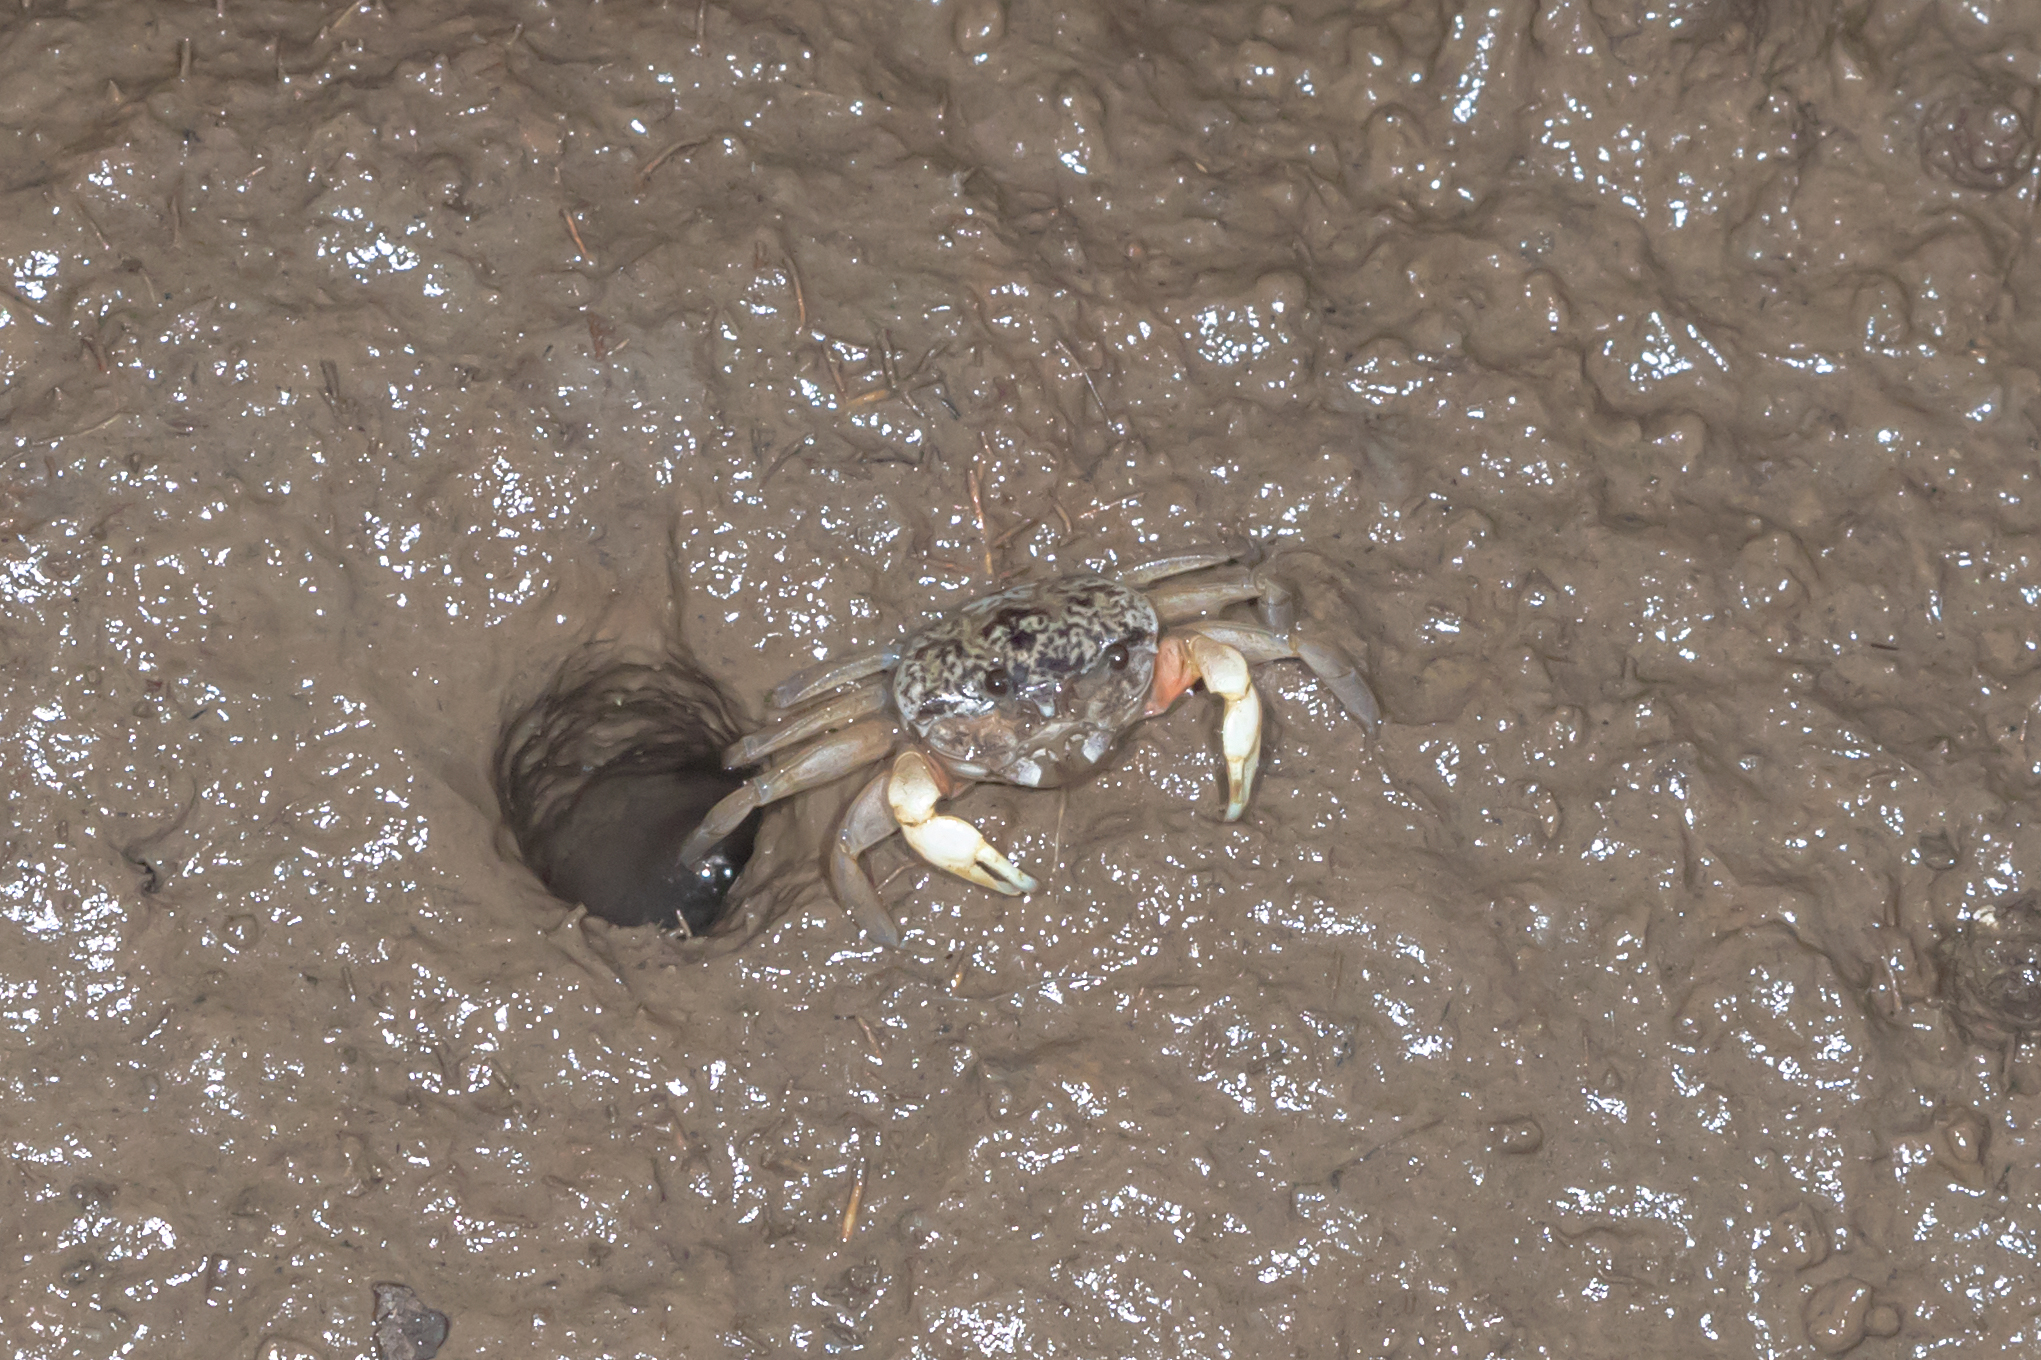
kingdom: Animalia
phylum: Arthropoda
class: Malacostraca
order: Decapoda
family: Heloeciidae
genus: Heloecius
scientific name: Heloecius cordiformis
